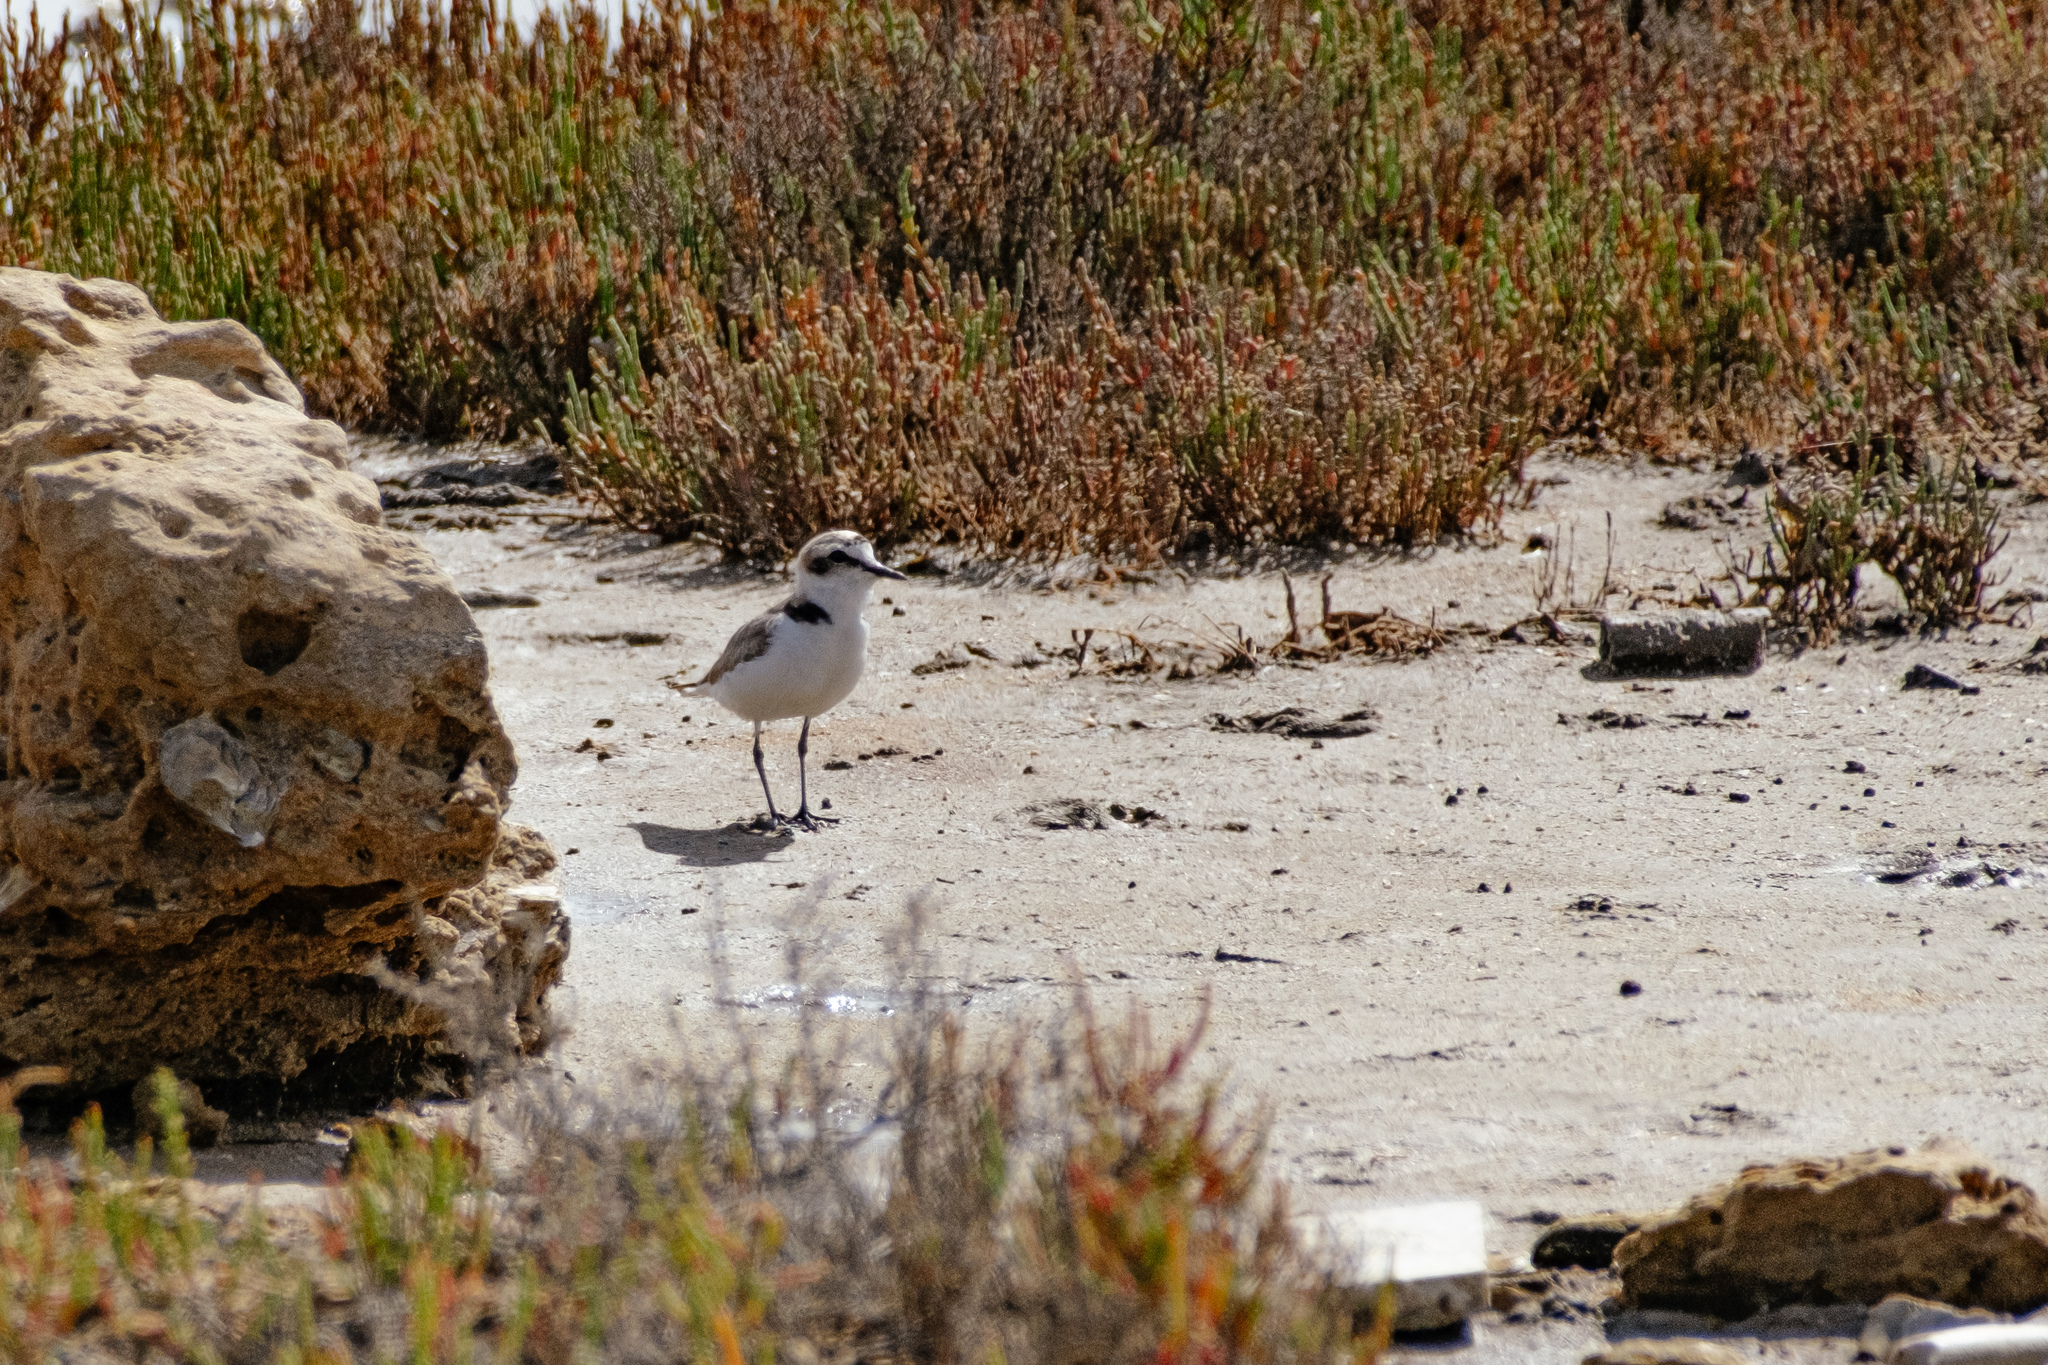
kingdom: Animalia
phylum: Chordata
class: Aves
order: Charadriiformes
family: Charadriidae
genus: Charadrius
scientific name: Charadrius alexandrinus
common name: Kentish plover
